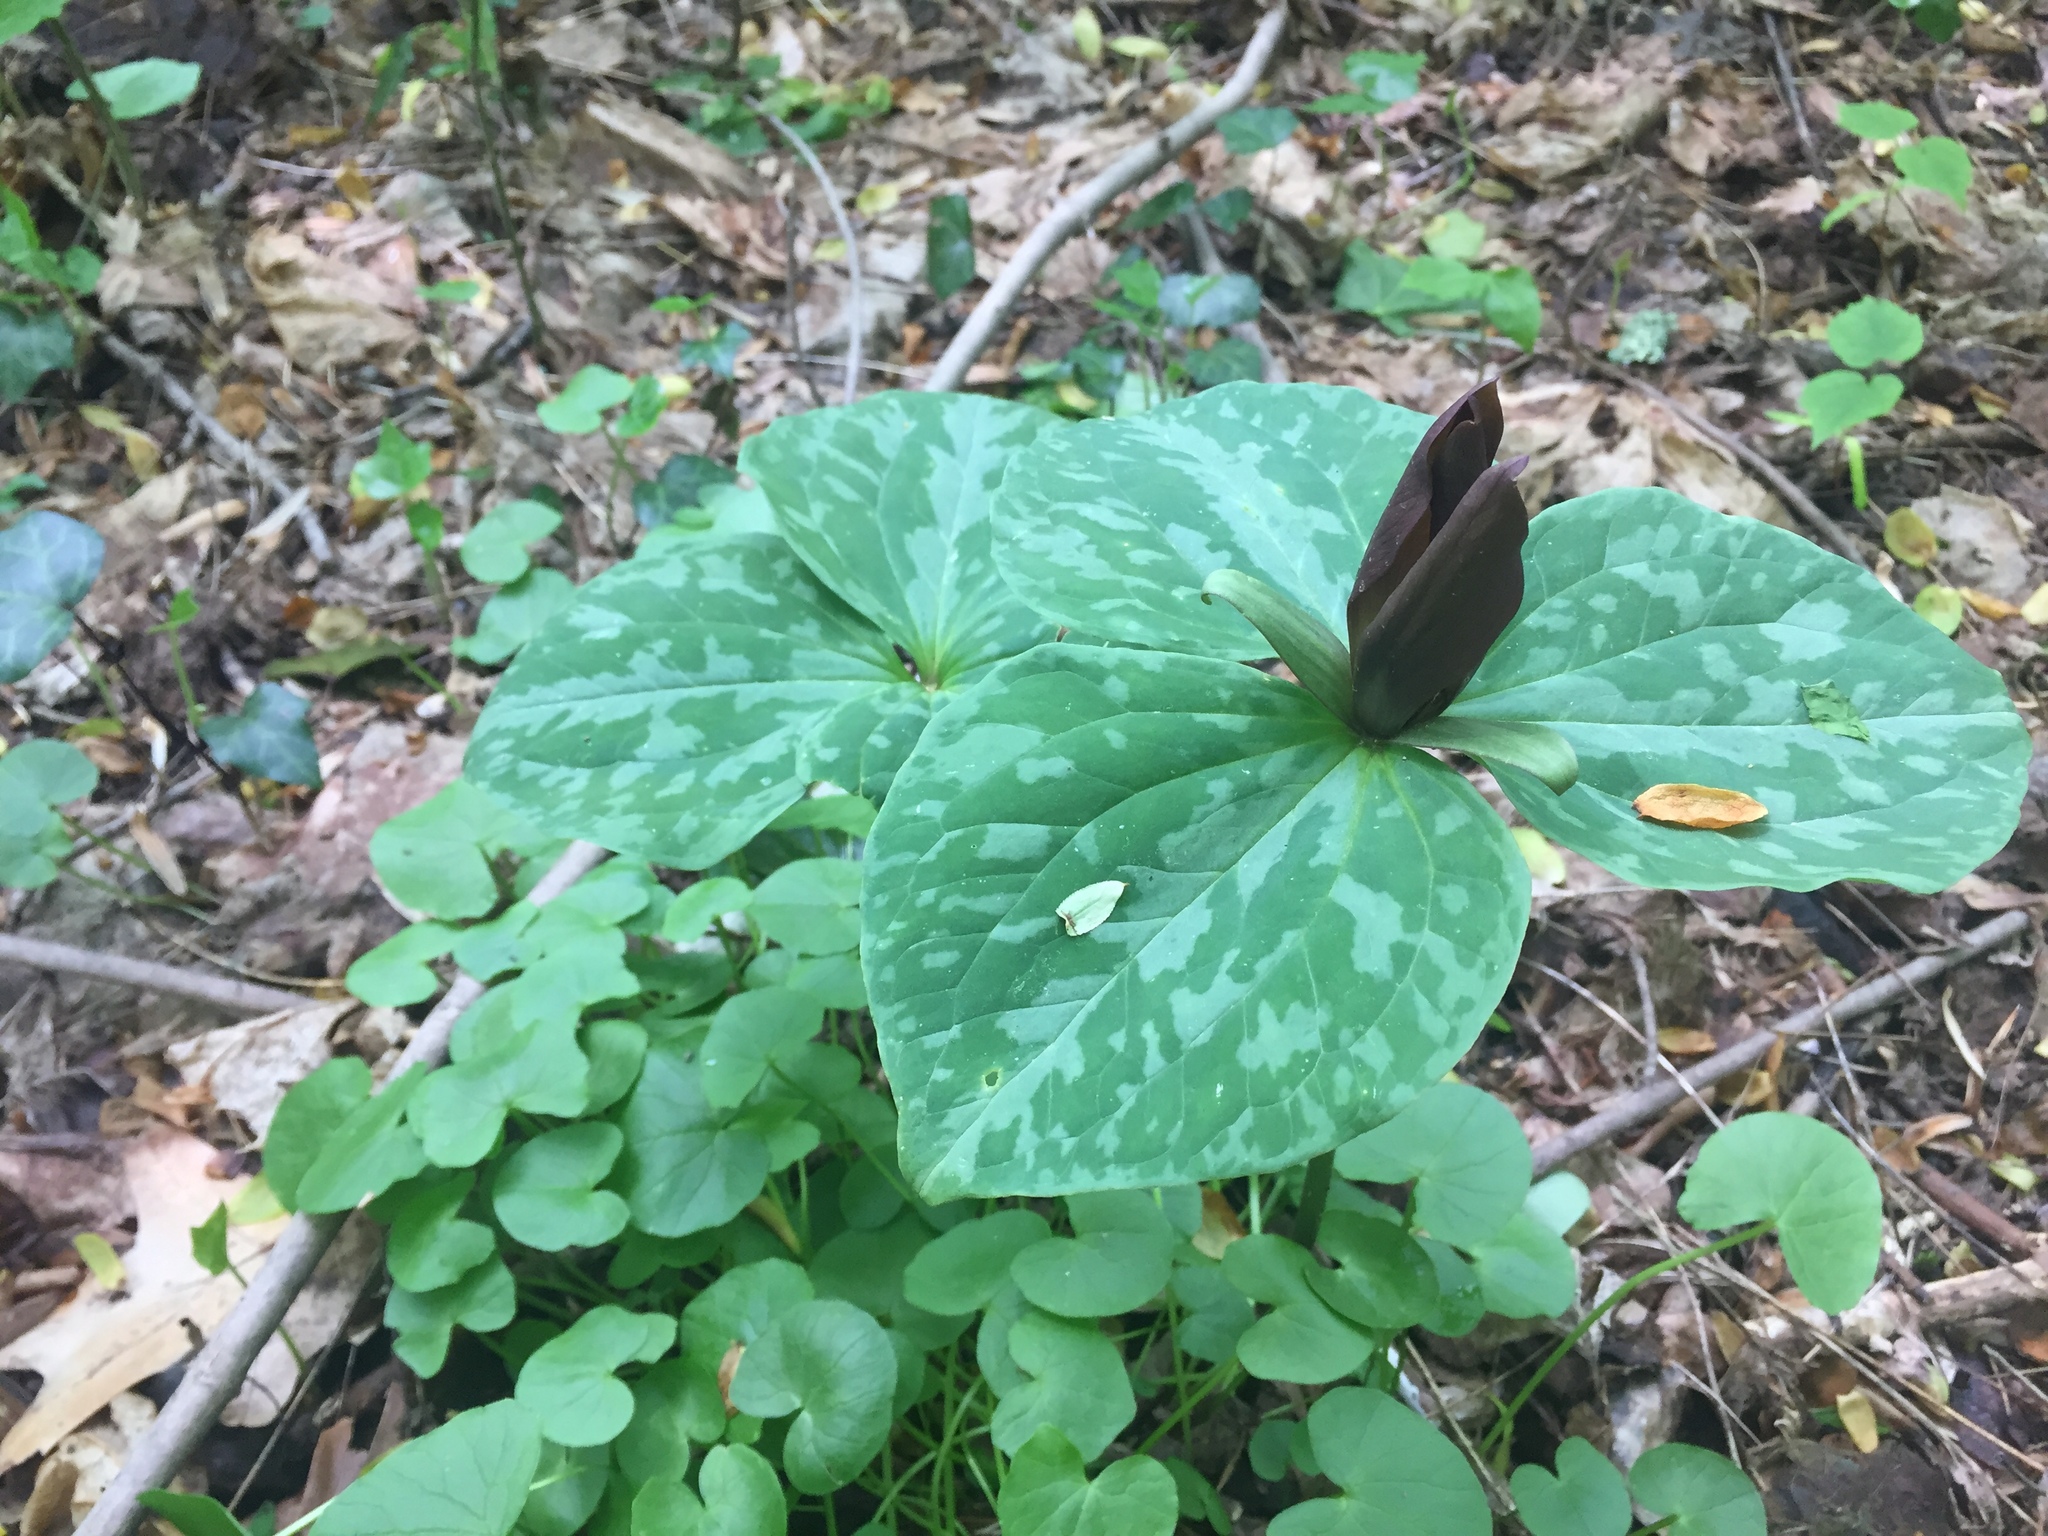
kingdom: Plantae
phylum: Tracheophyta
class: Liliopsida
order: Liliales
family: Melanthiaceae
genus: Trillium
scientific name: Trillium cuneatum
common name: Cuneate trillium
